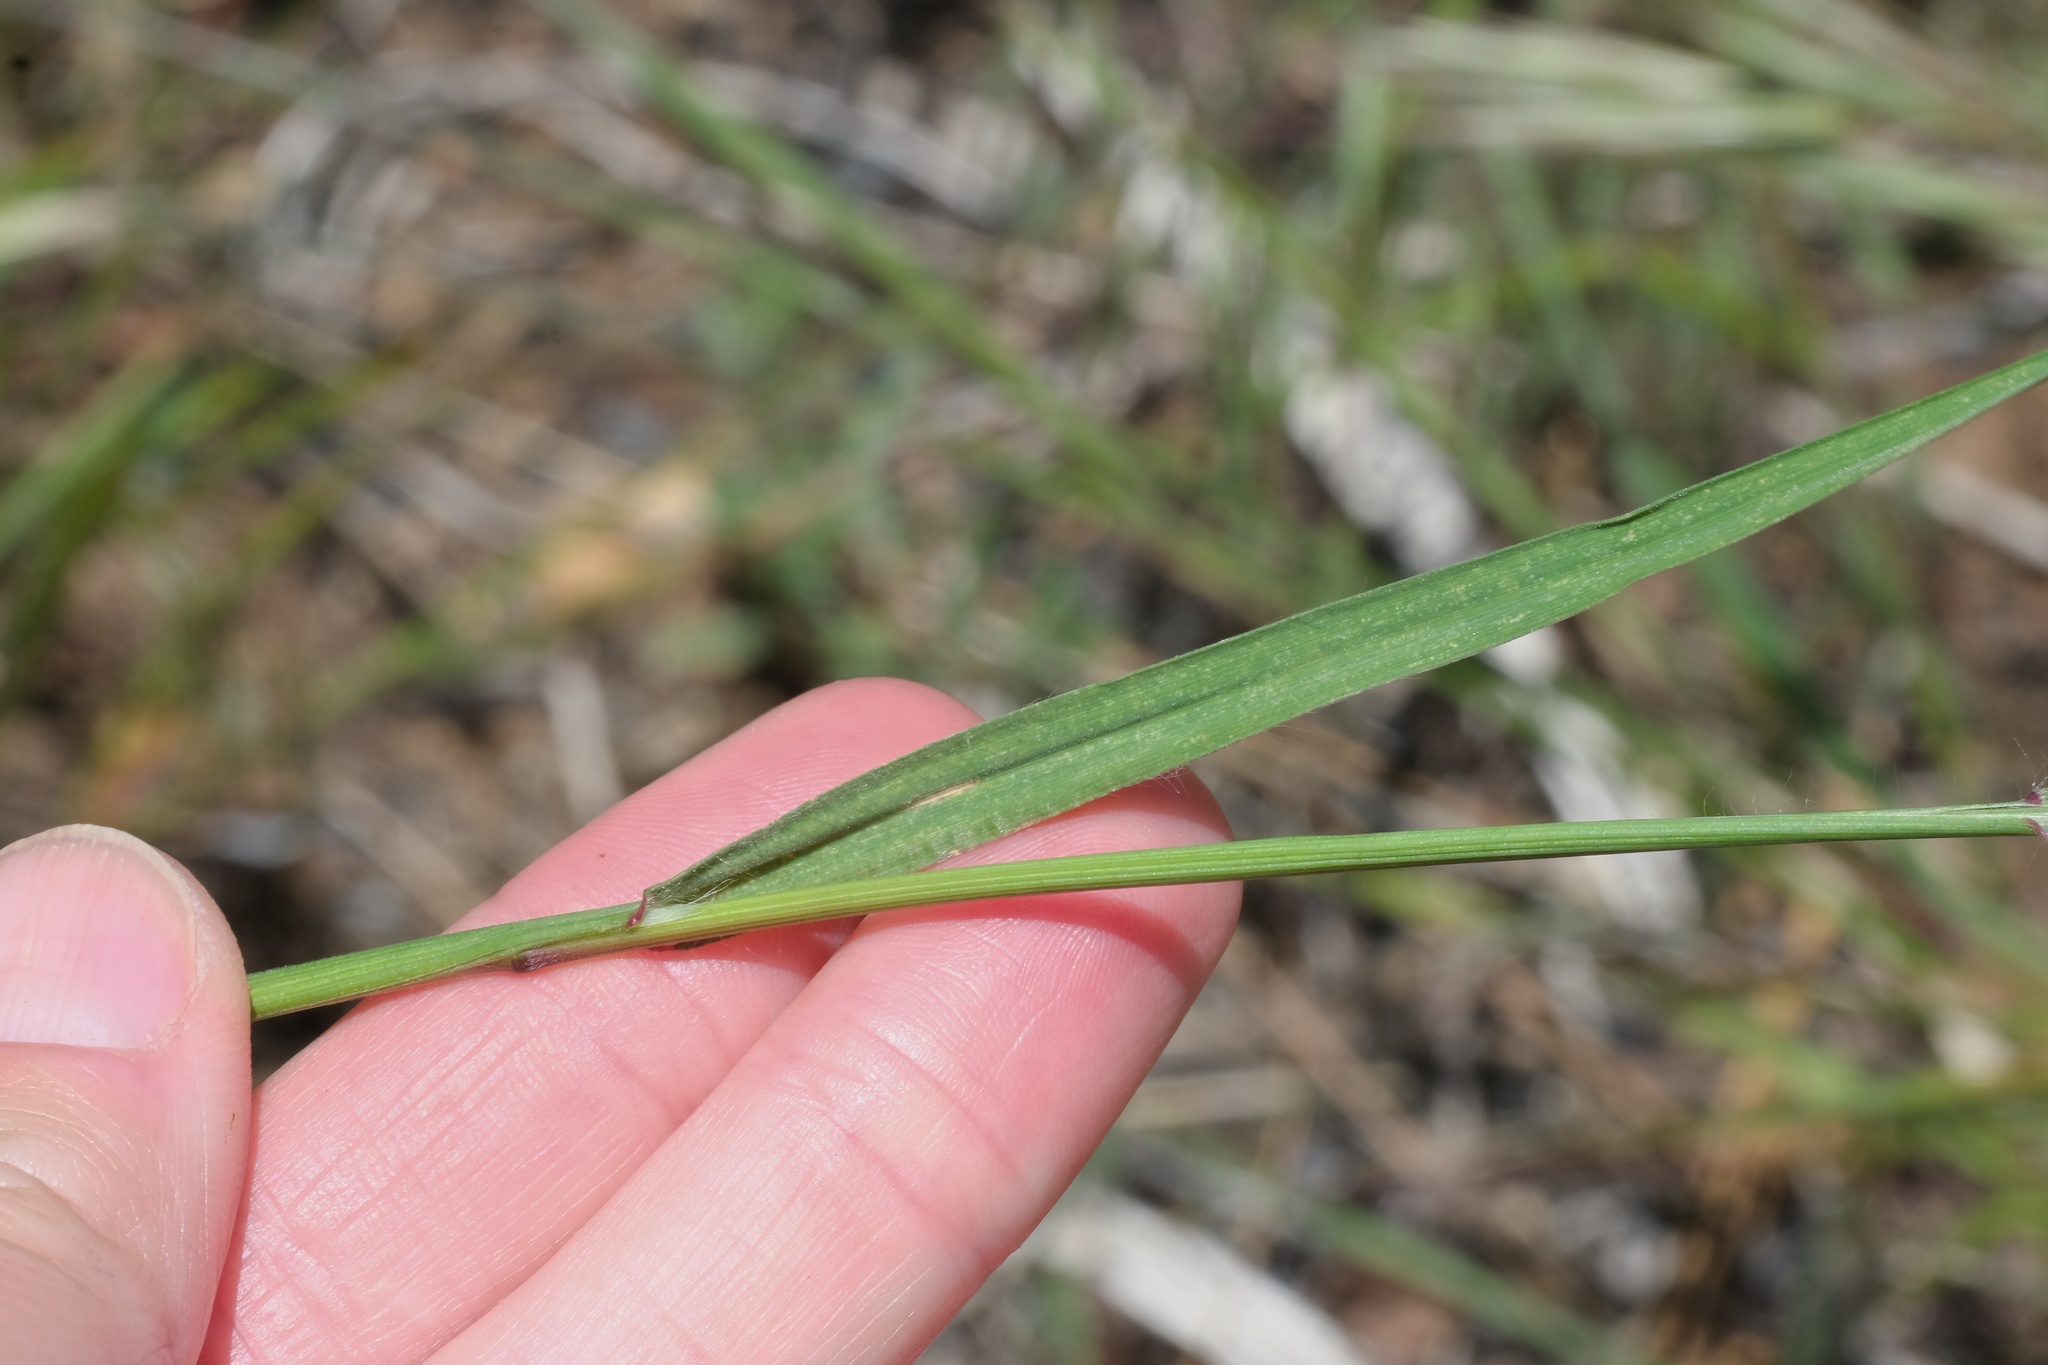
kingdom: Plantae
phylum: Tracheophyta
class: Liliopsida
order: Poales
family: Poaceae
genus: Bromus
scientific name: Bromus tectorum
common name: Cheatgrass
